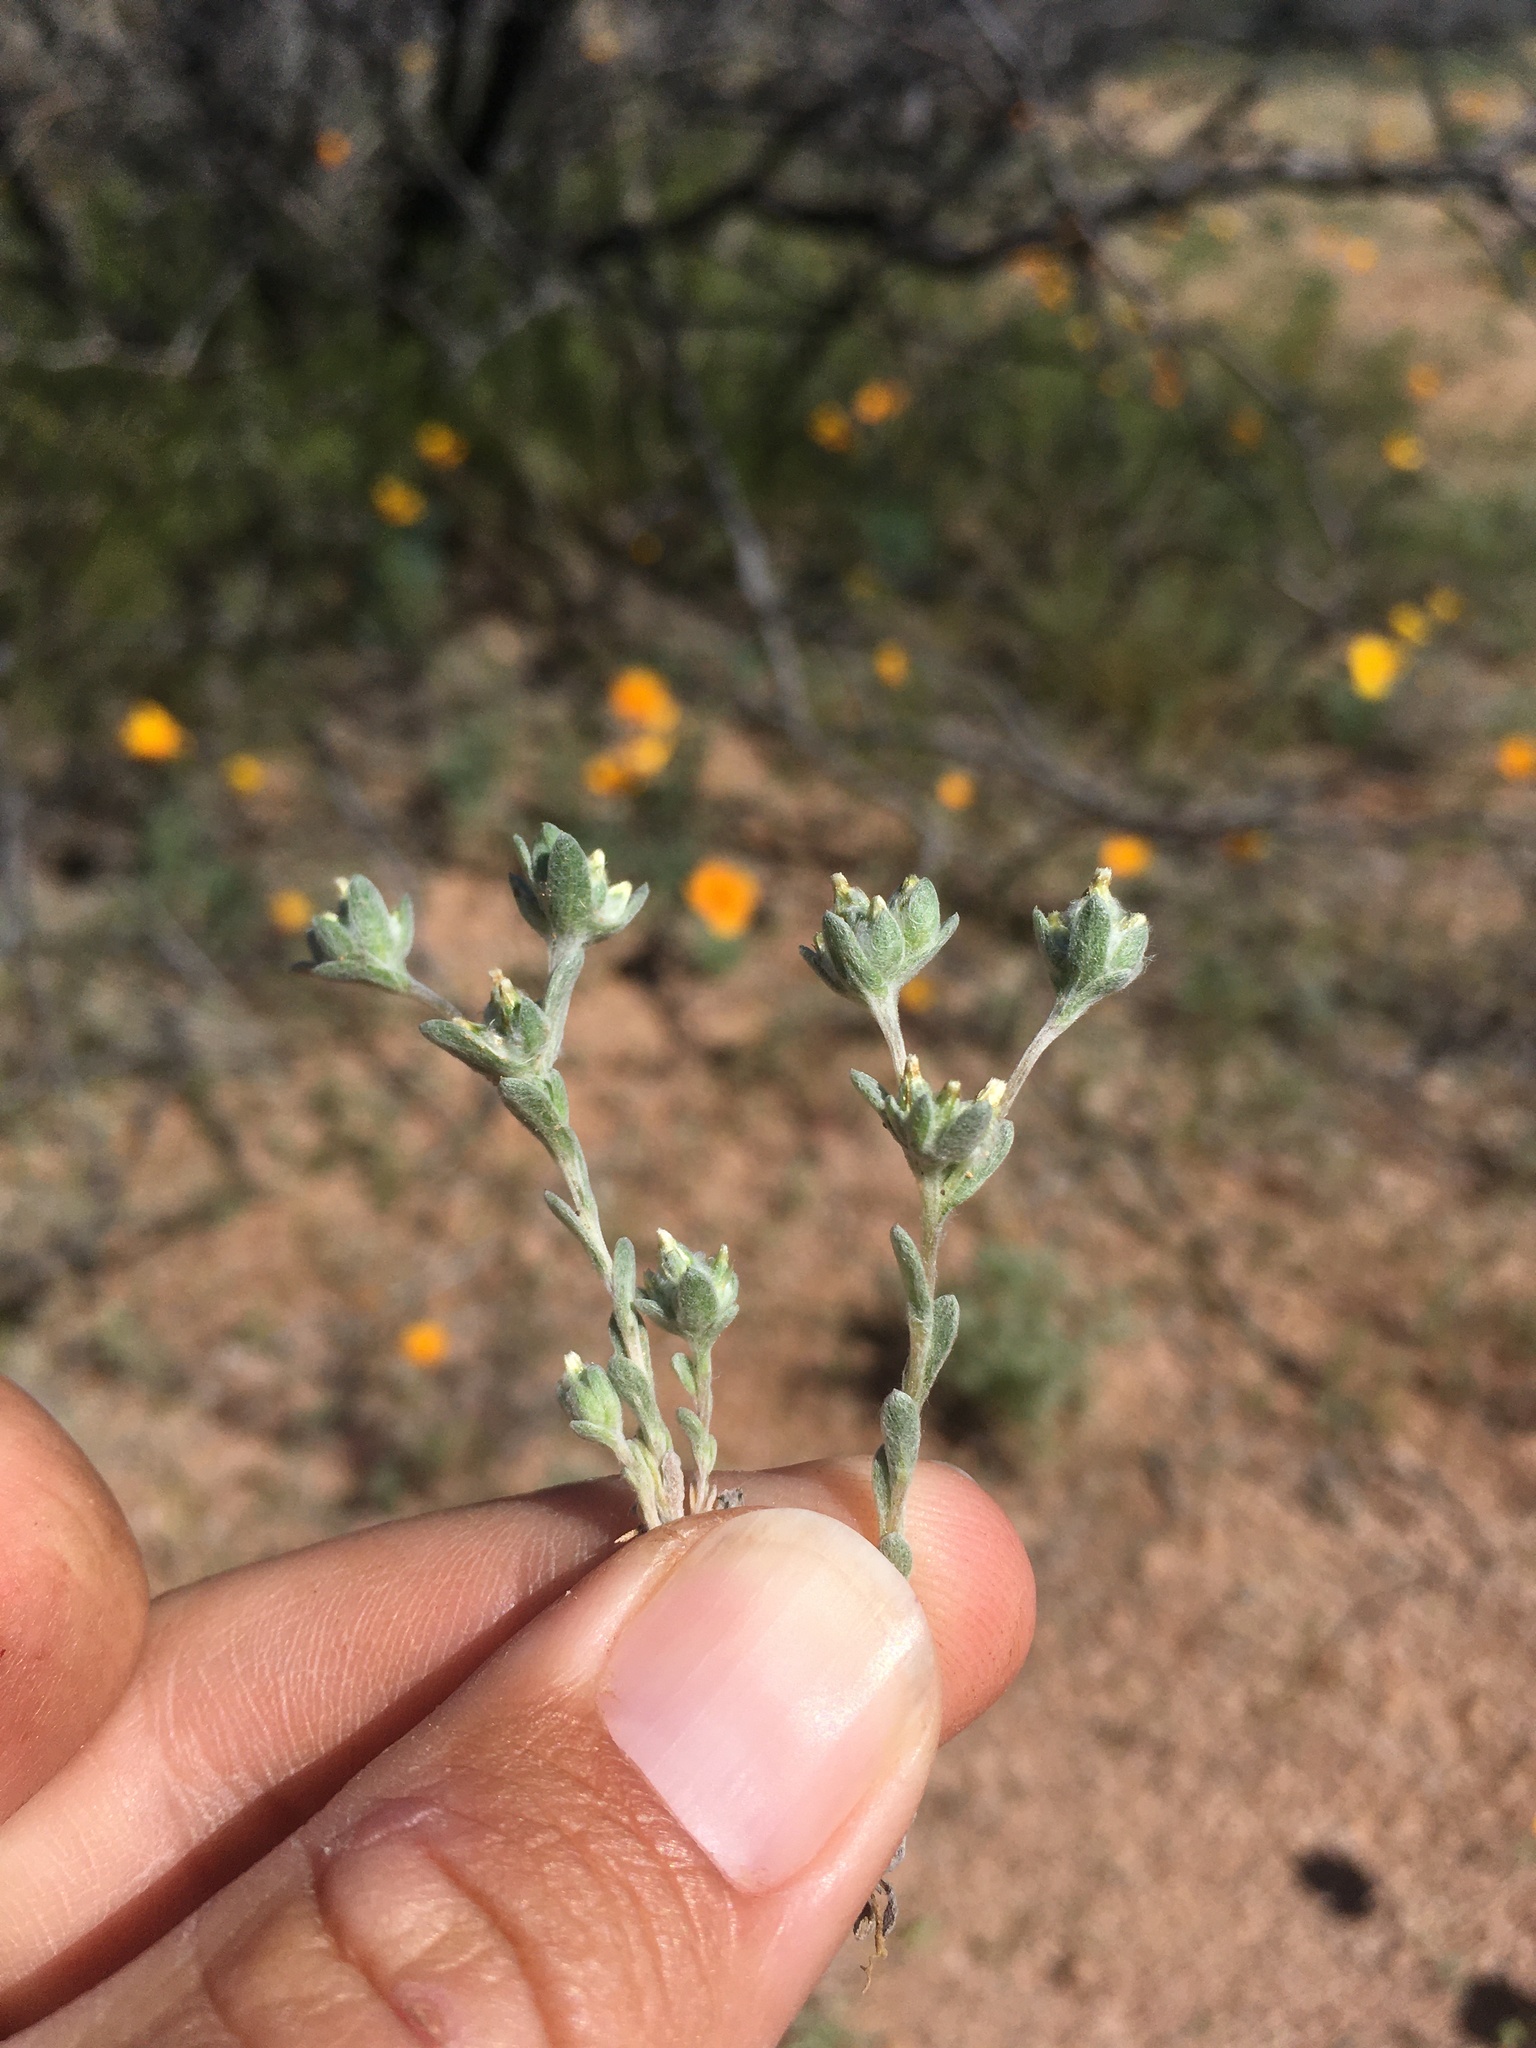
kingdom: Plantae
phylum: Tracheophyta
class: Magnoliopsida
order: Asterales
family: Asteraceae
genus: Logfia
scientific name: Logfia depressa
